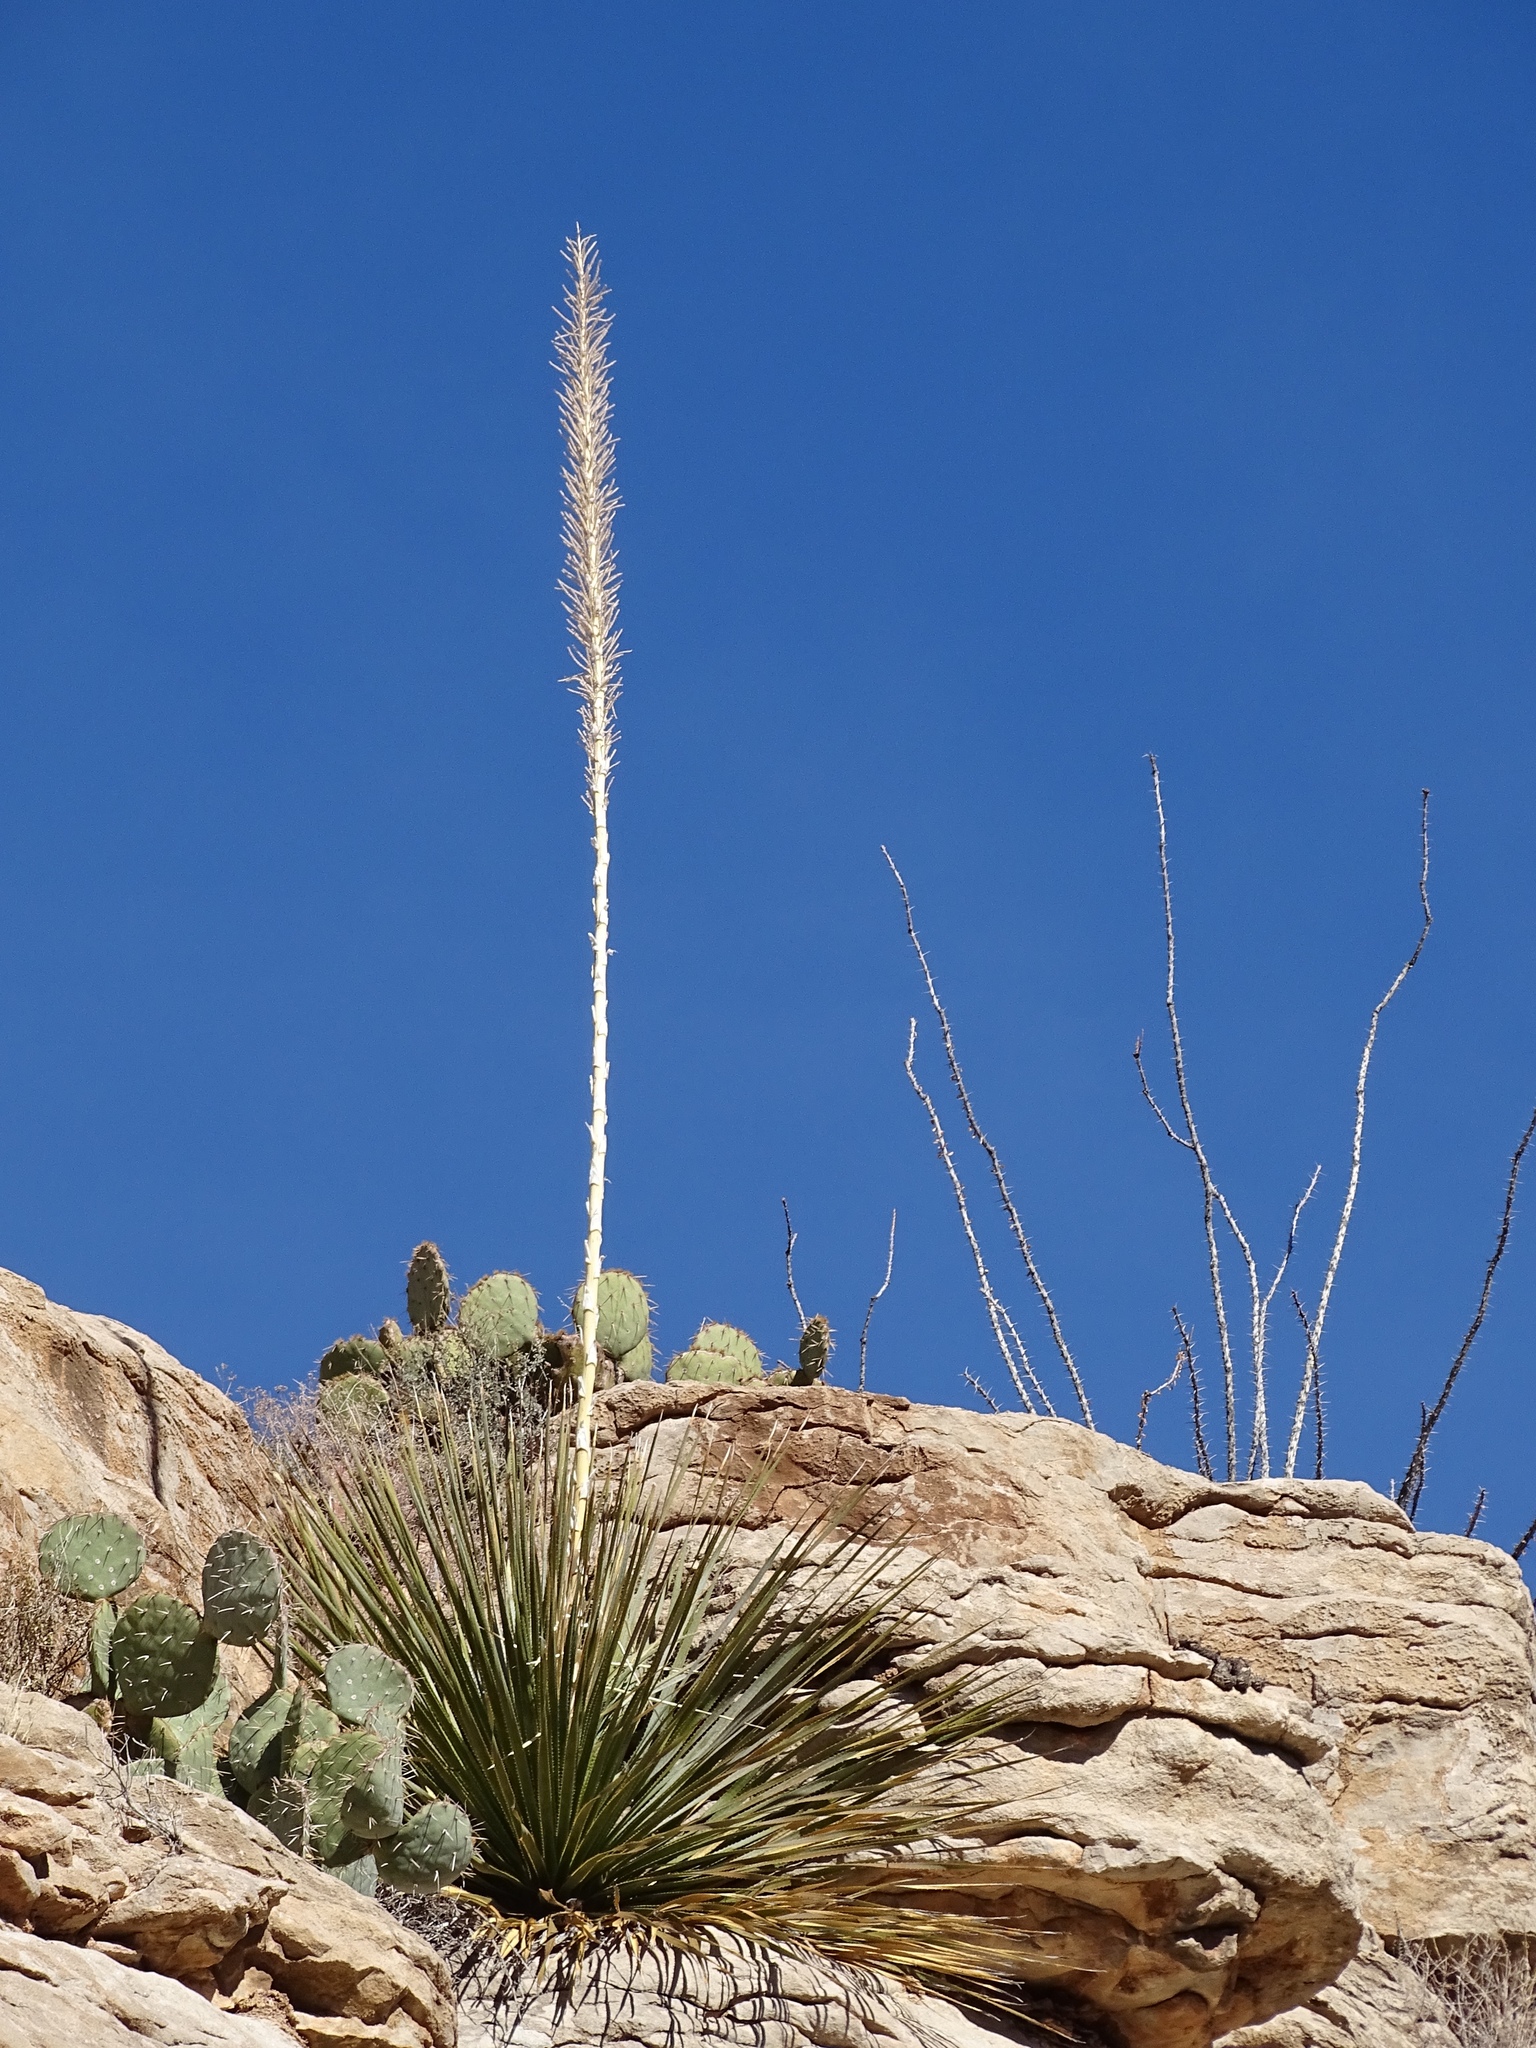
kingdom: Plantae
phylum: Tracheophyta
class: Liliopsida
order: Asparagales
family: Asparagaceae
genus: Dasylirion
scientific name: Dasylirion wheeleri
